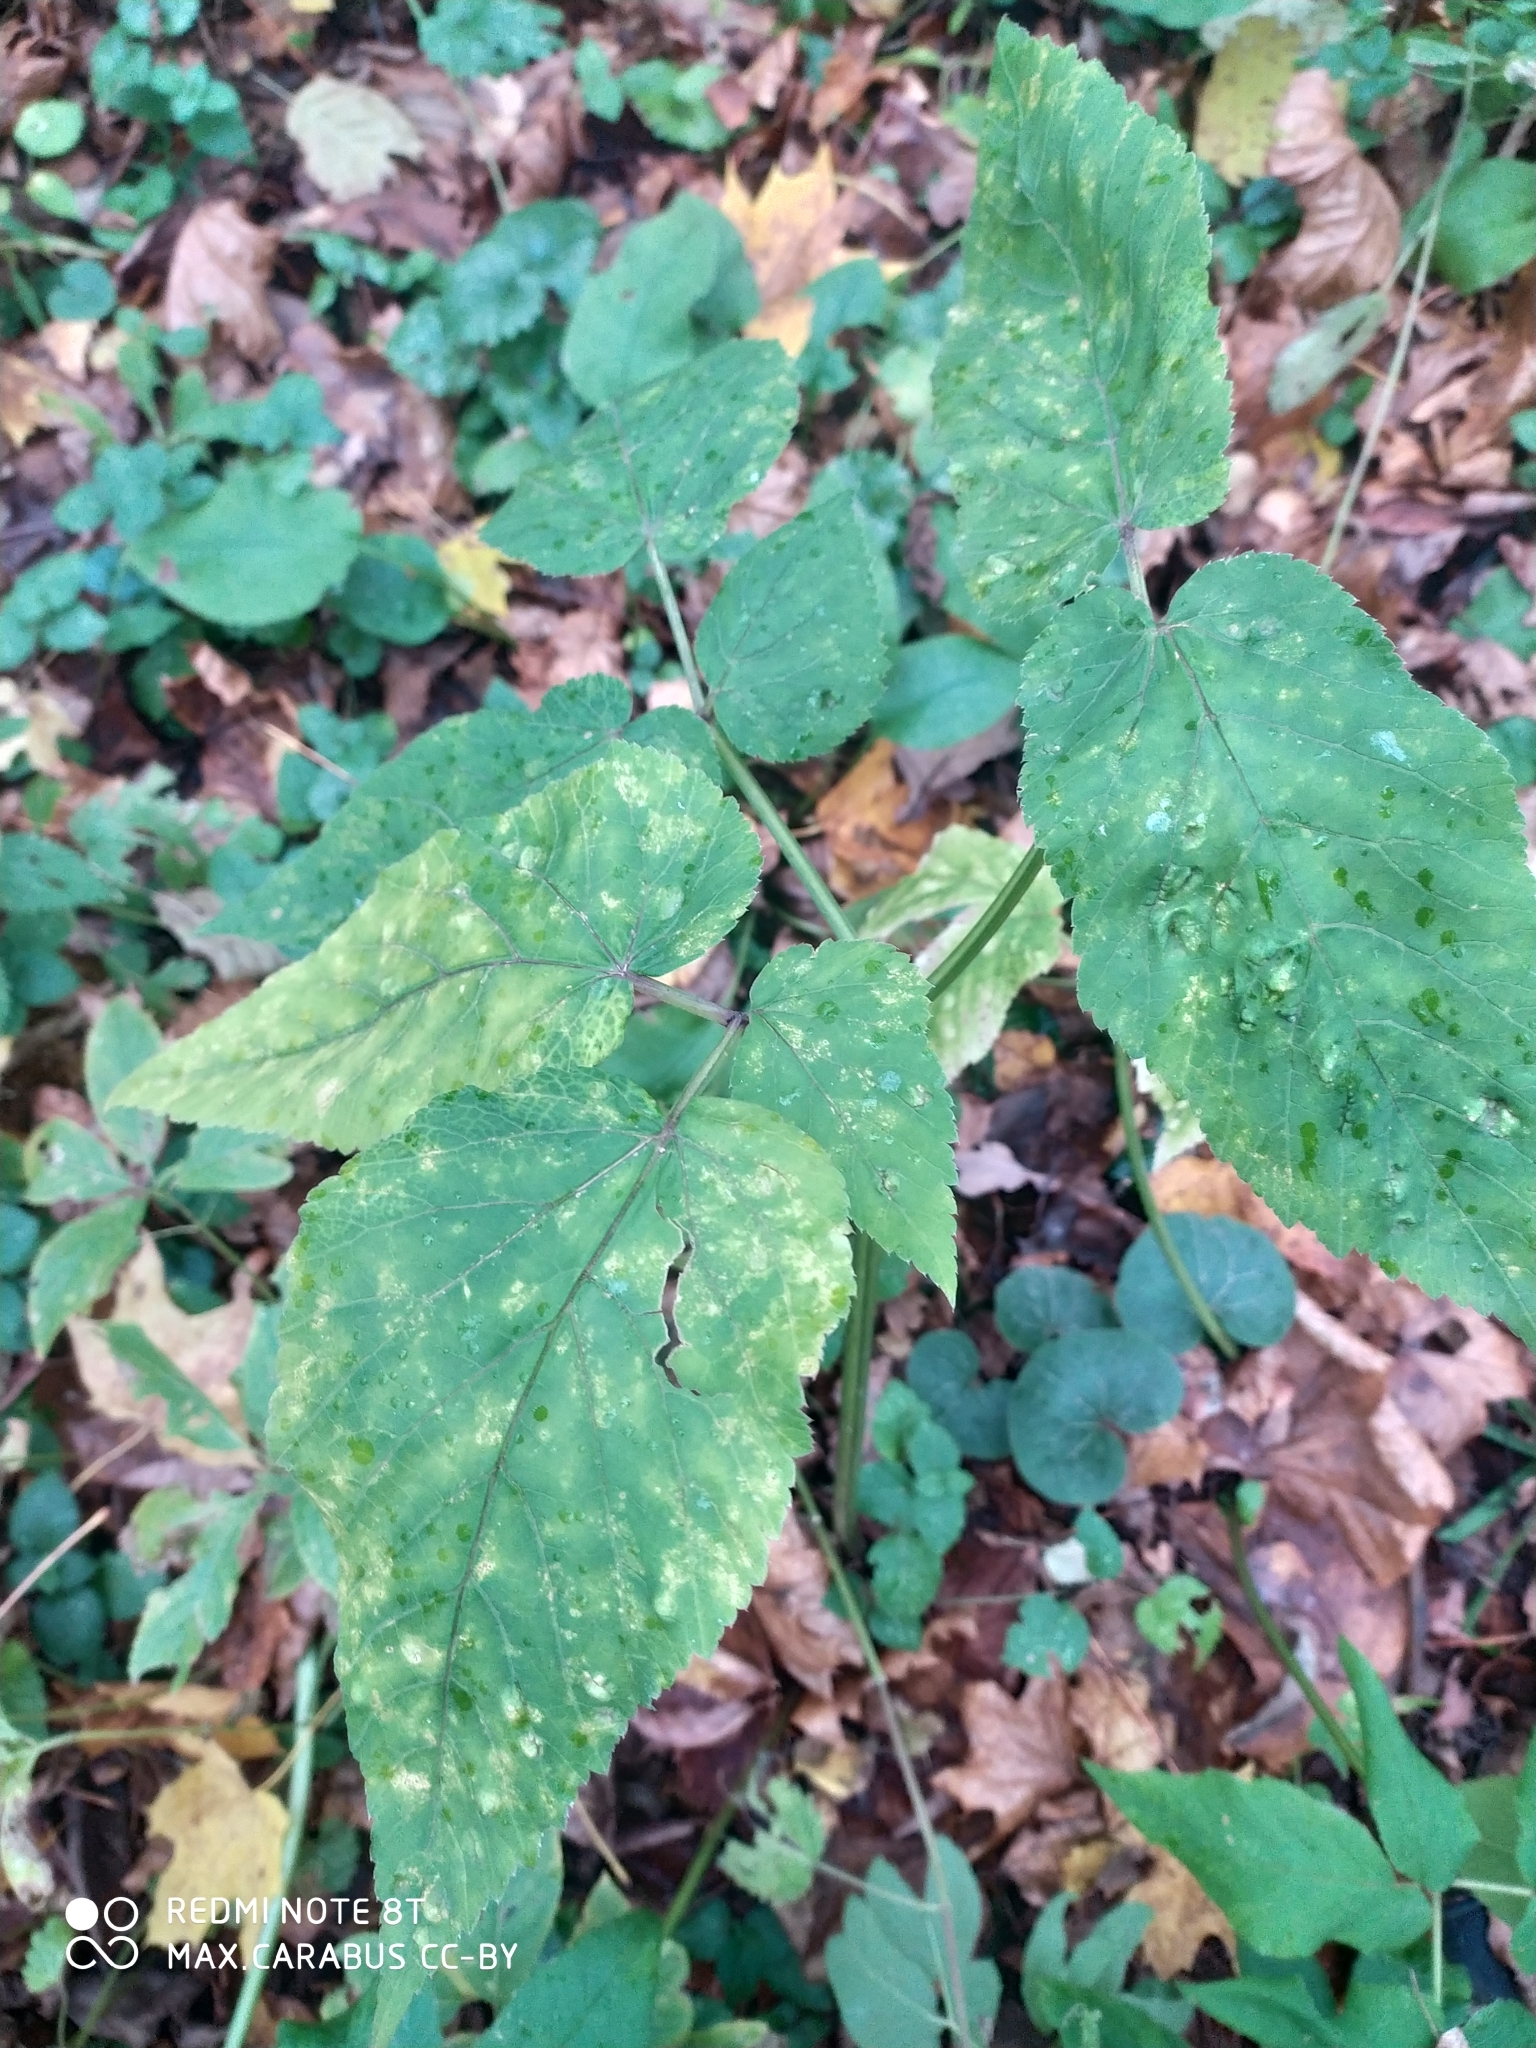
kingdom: Plantae
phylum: Tracheophyta
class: Magnoliopsida
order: Apiales
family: Apiaceae
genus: Aegopodium
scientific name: Aegopodium podagraria
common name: Ground-elder
